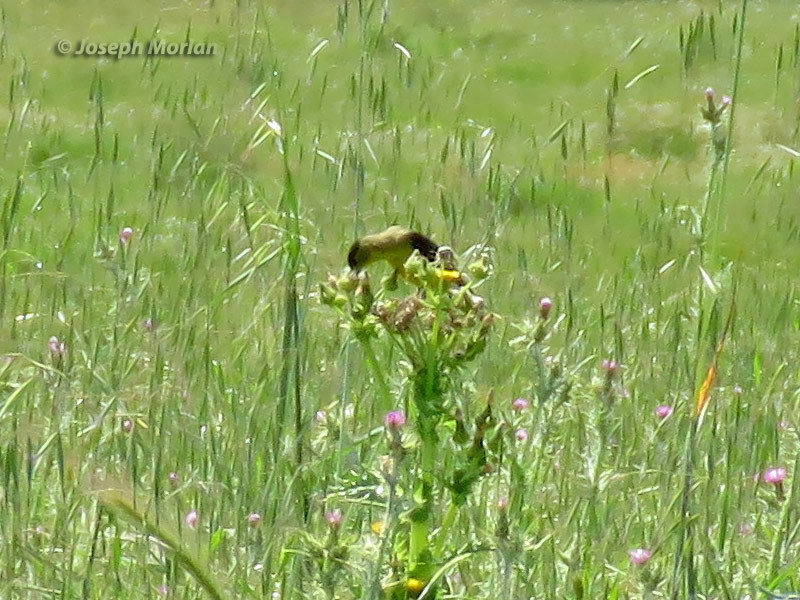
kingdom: Animalia
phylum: Chordata
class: Aves
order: Passeriformes
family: Fringillidae
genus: Spinus
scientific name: Spinus psaltria
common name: Lesser goldfinch
